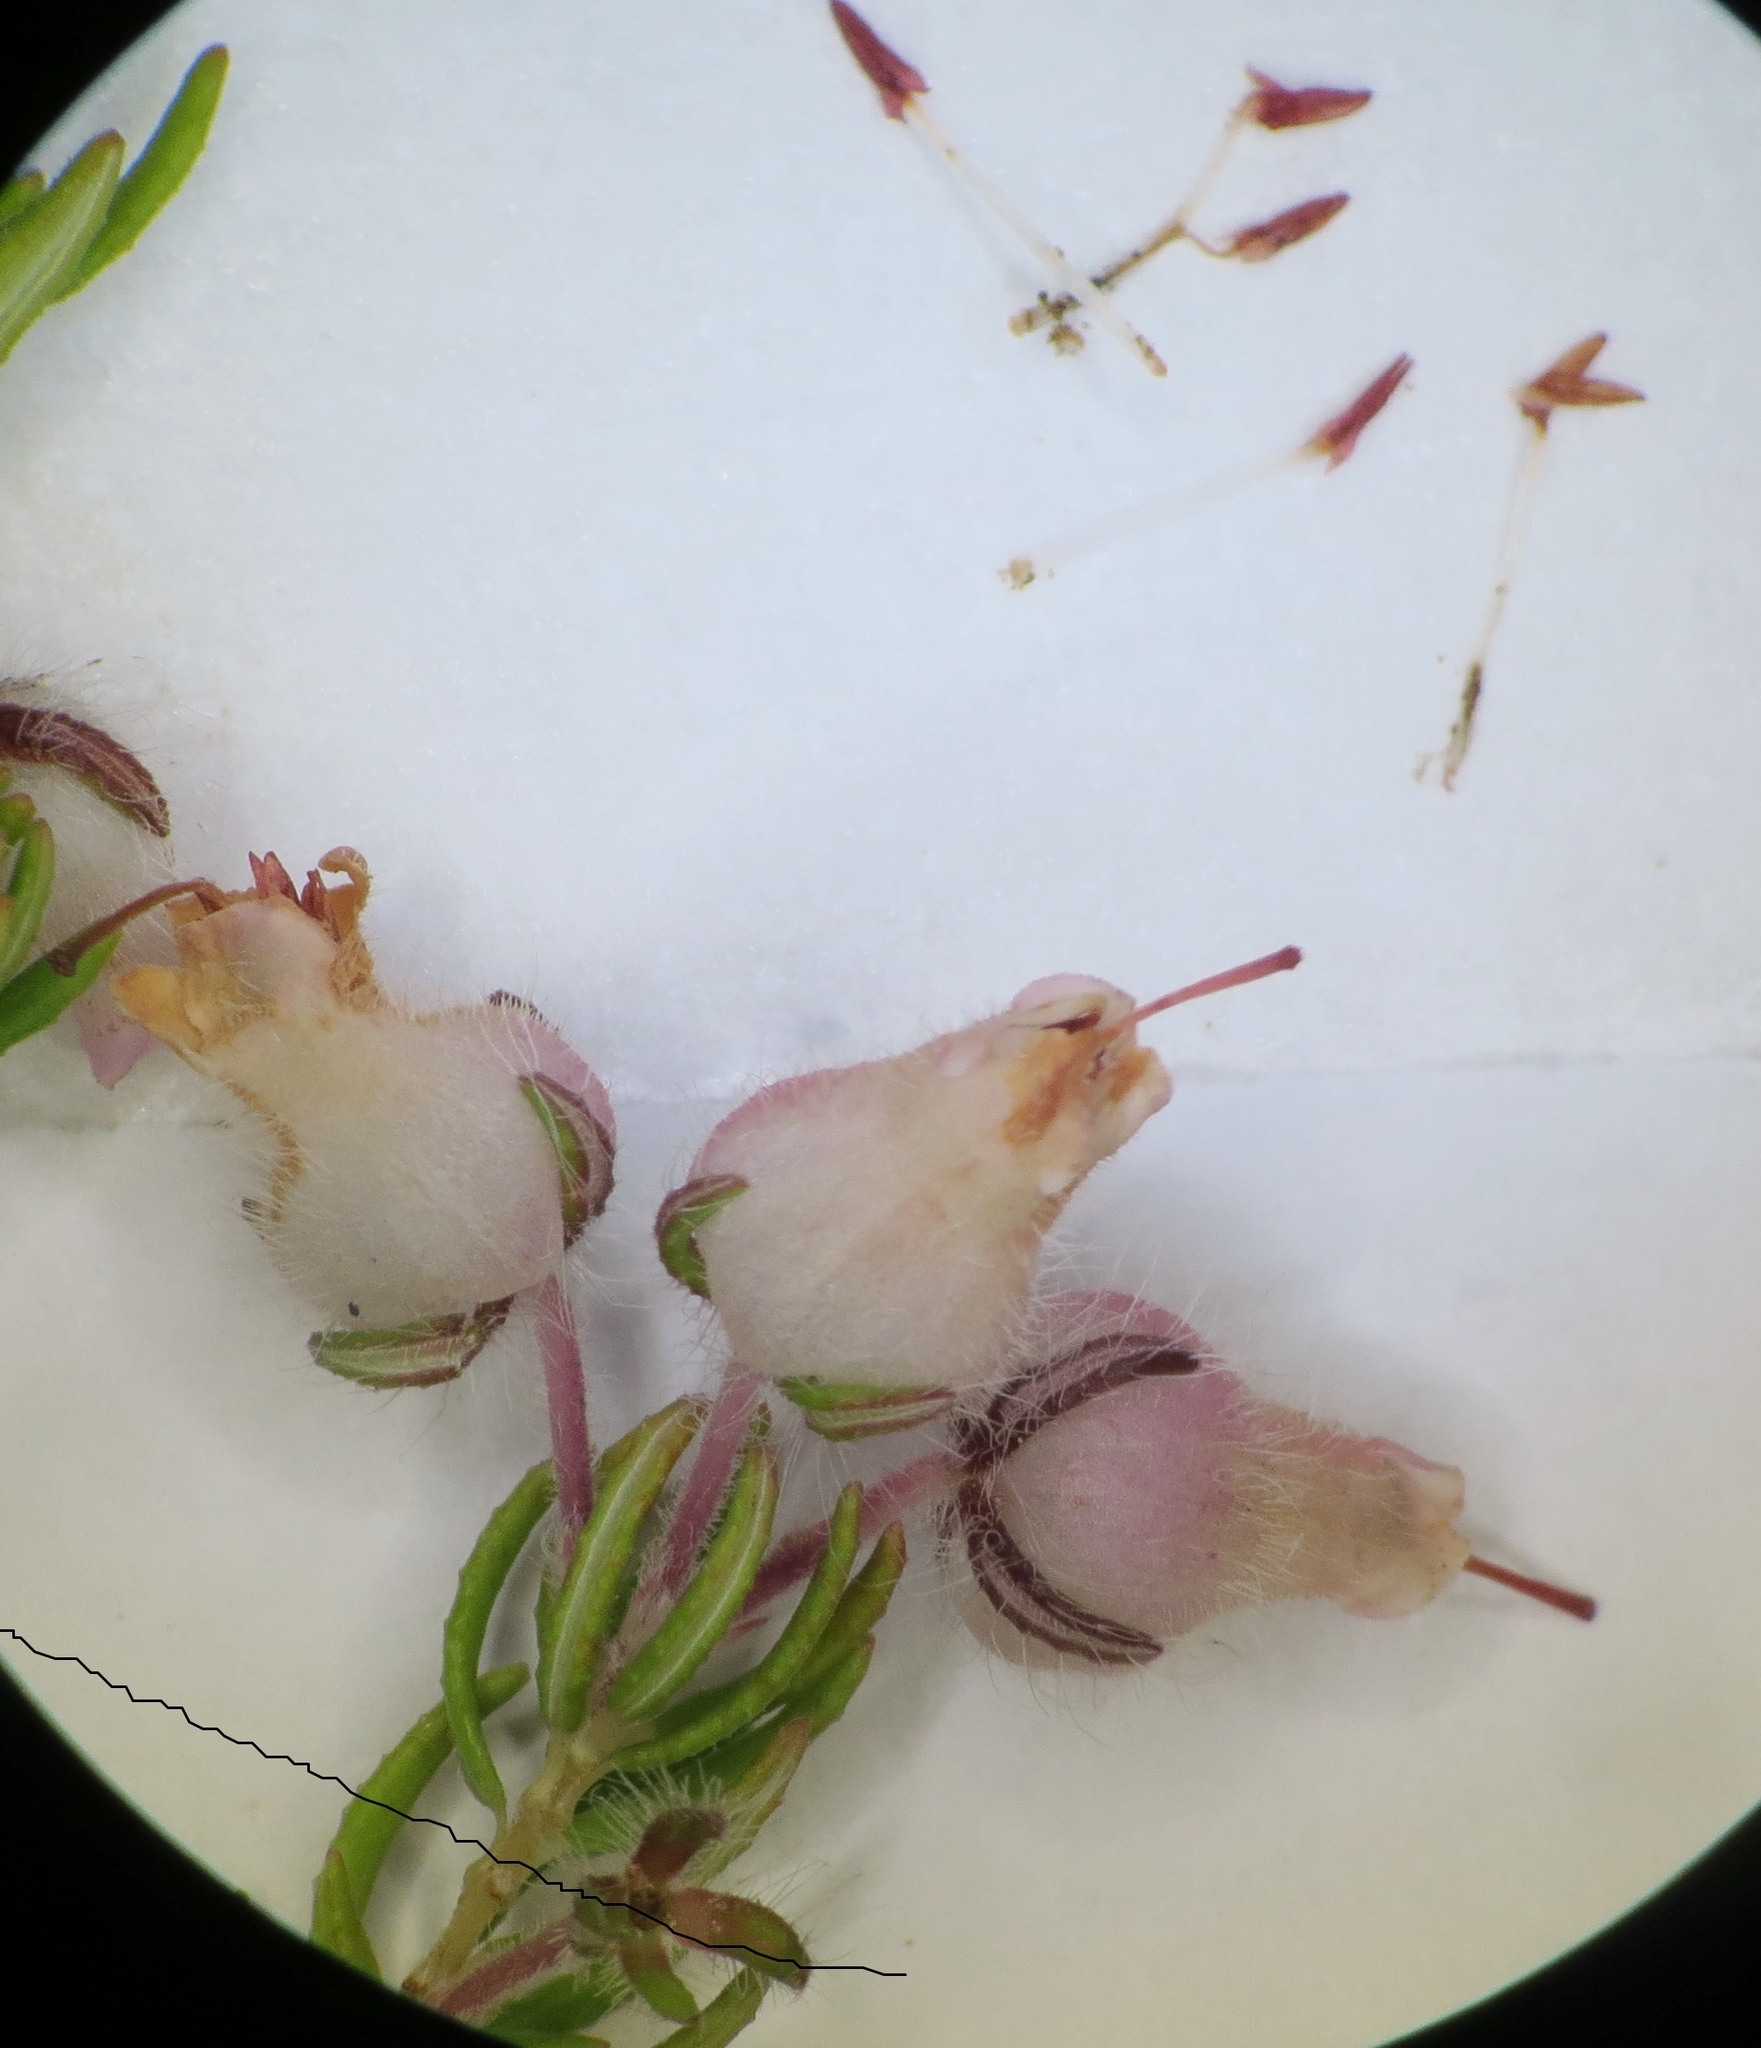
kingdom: Plantae
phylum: Tracheophyta
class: Magnoliopsida
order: Ericales
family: Ericaceae
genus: Erica
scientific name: Erica oxyandra
